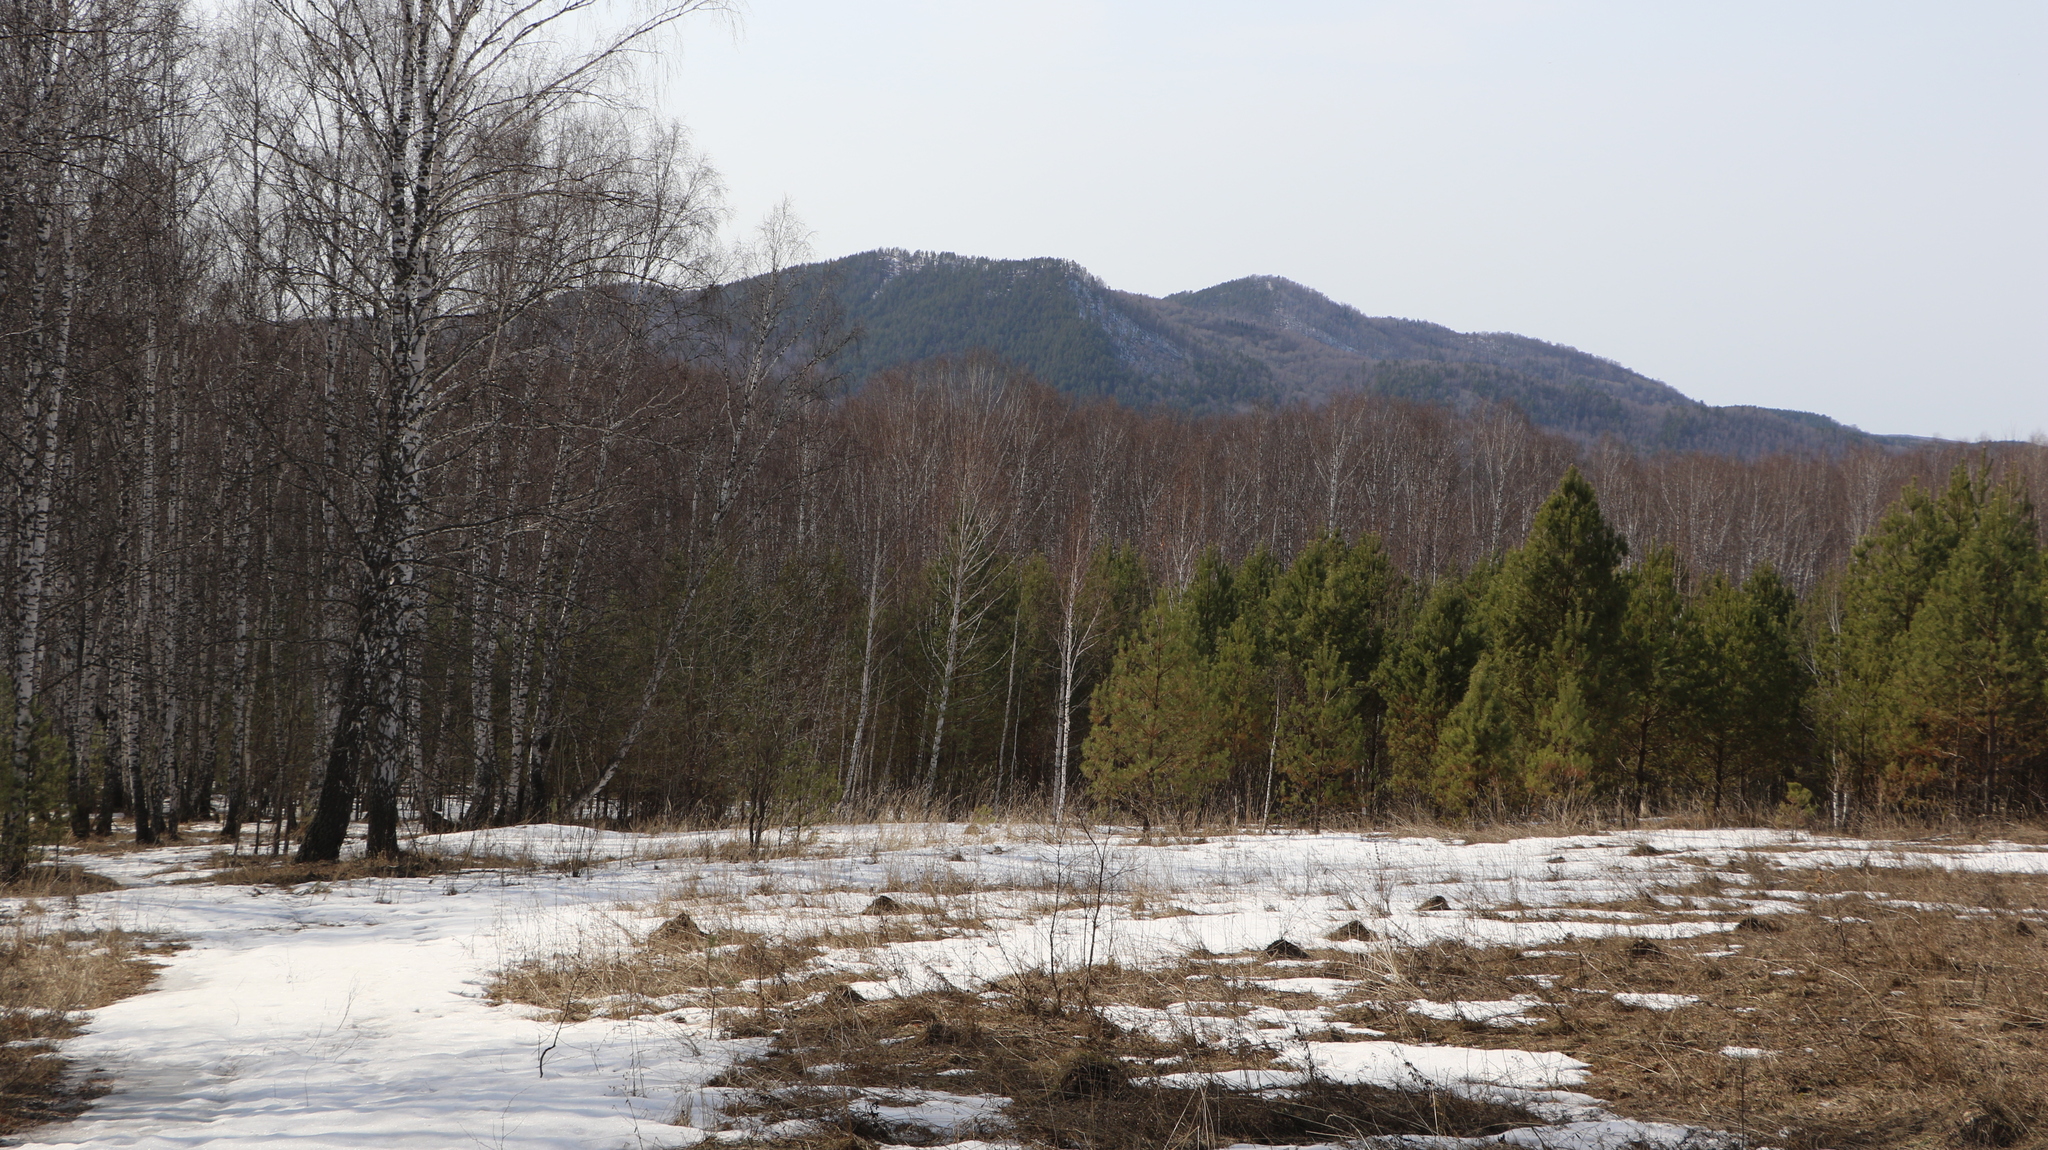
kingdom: Plantae
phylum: Tracheophyta
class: Pinopsida
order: Pinales
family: Pinaceae
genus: Pinus
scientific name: Pinus sylvestris
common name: Scots pine
